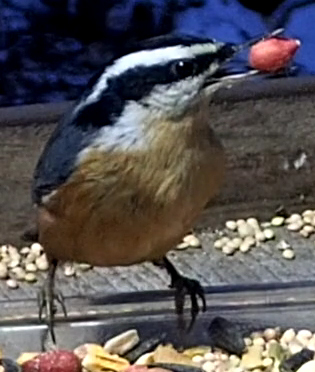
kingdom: Animalia
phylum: Chordata
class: Aves
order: Passeriformes
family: Sittidae
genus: Sitta
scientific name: Sitta canadensis
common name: Red-breasted nuthatch
